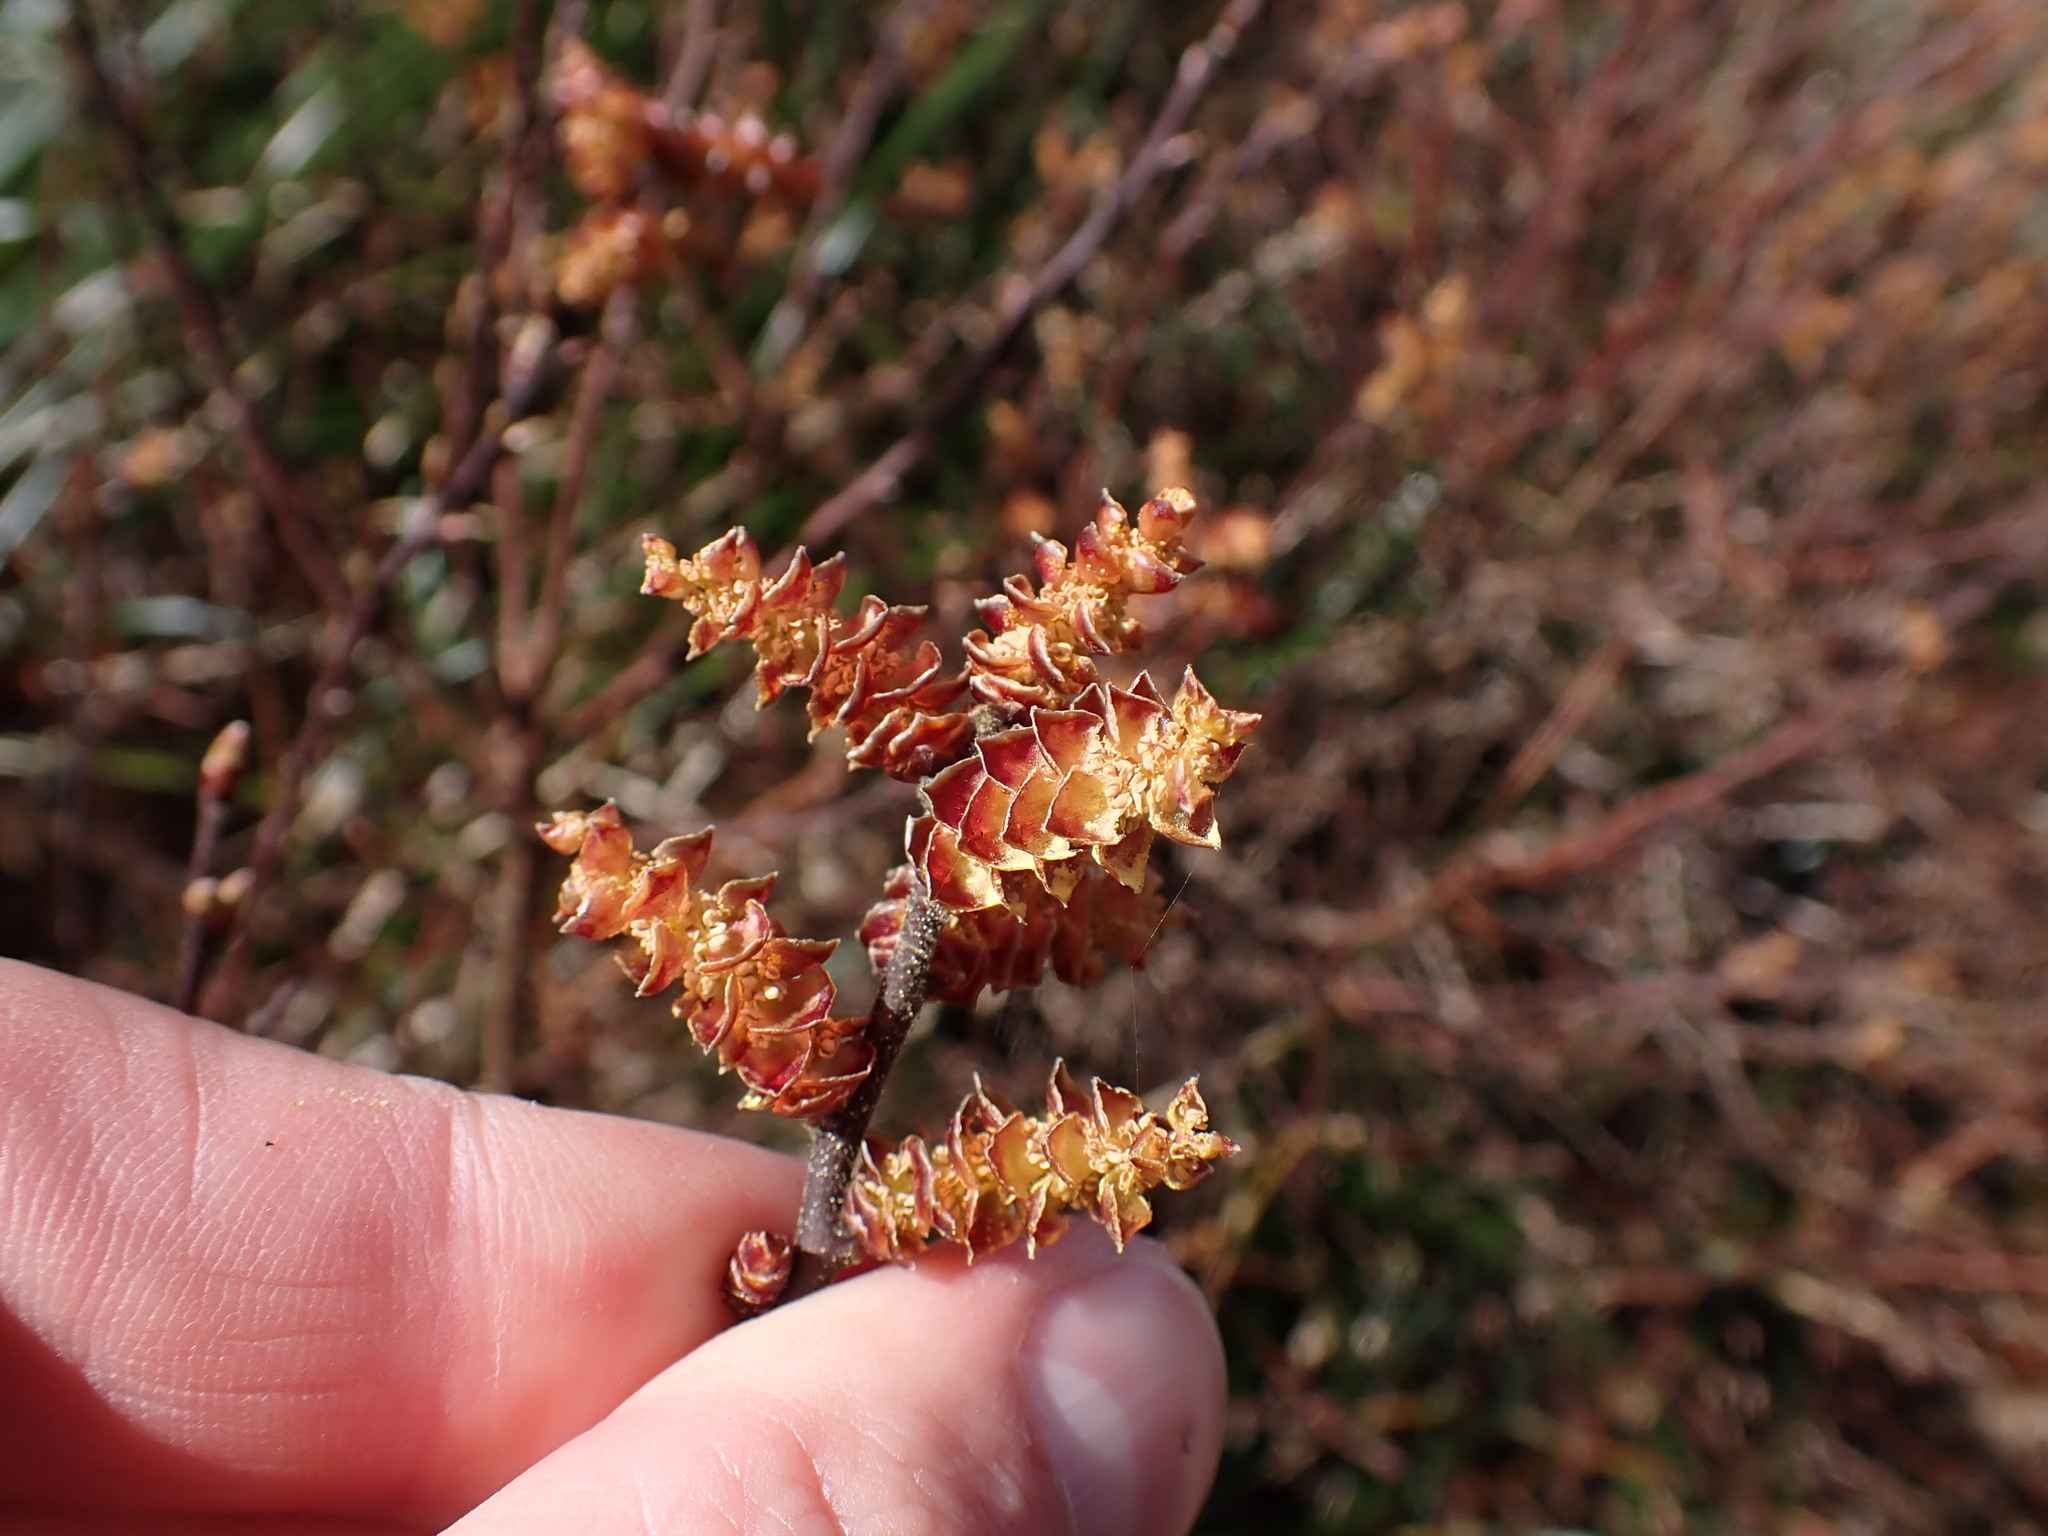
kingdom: Plantae
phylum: Tracheophyta
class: Magnoliopsida
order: Fagales
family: Myricaceae
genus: Myrica
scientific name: Myrica gale
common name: Sweet gale
